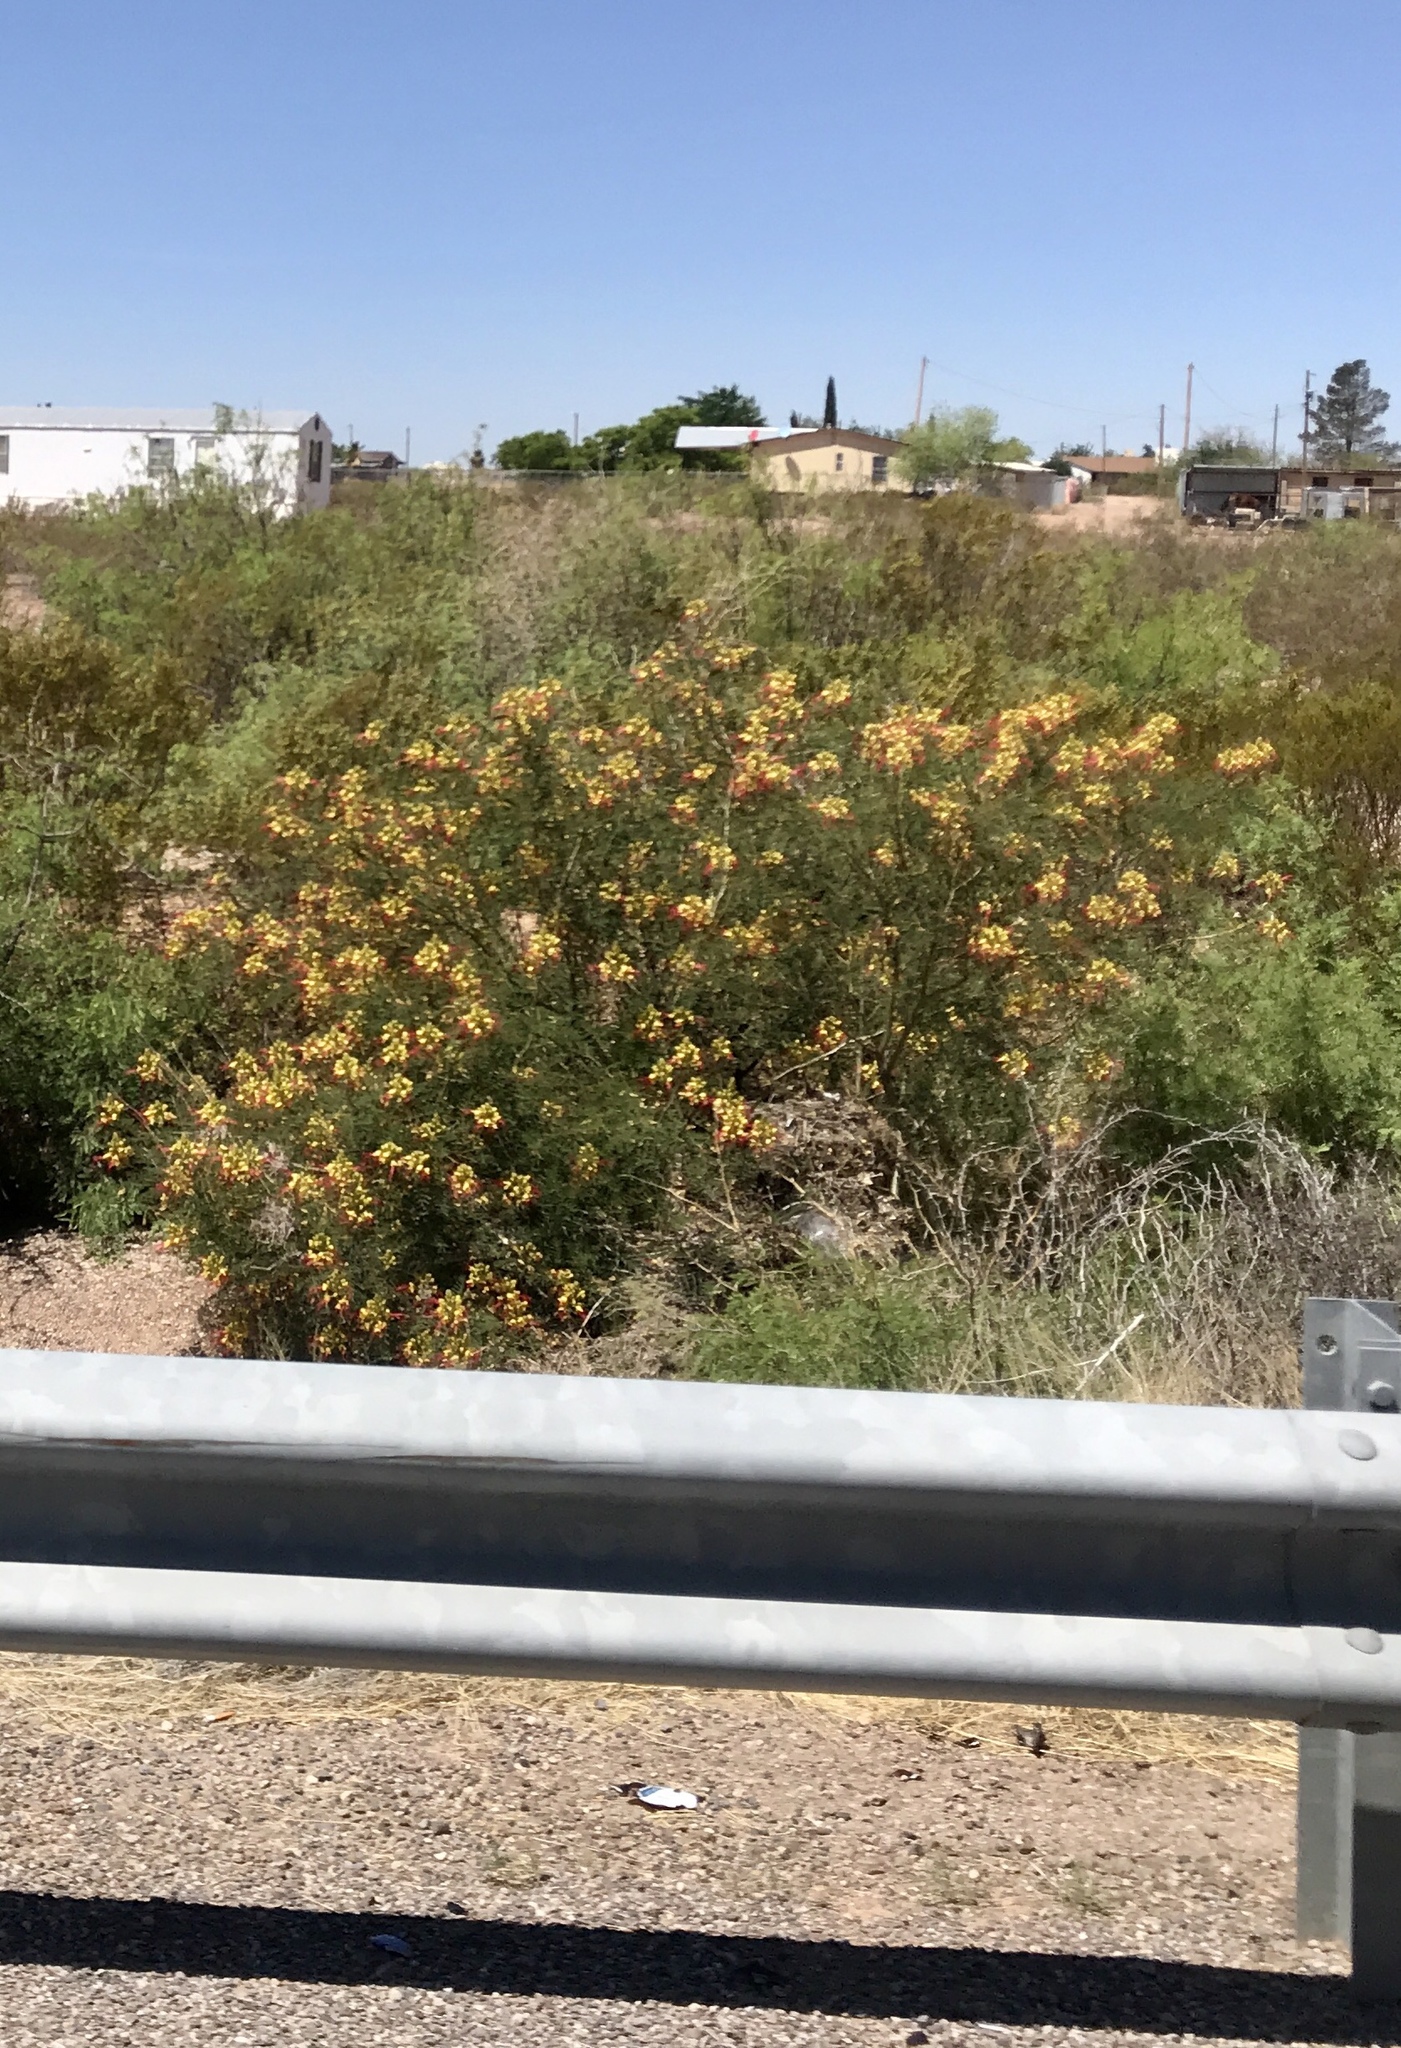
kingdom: Plantae
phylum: Tracheophyta
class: Magnoliopsida
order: Fabales
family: Fabaceae
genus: Erythrostemon
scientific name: Erythrostemon gilliesii
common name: Bird-of-paradise shrub
